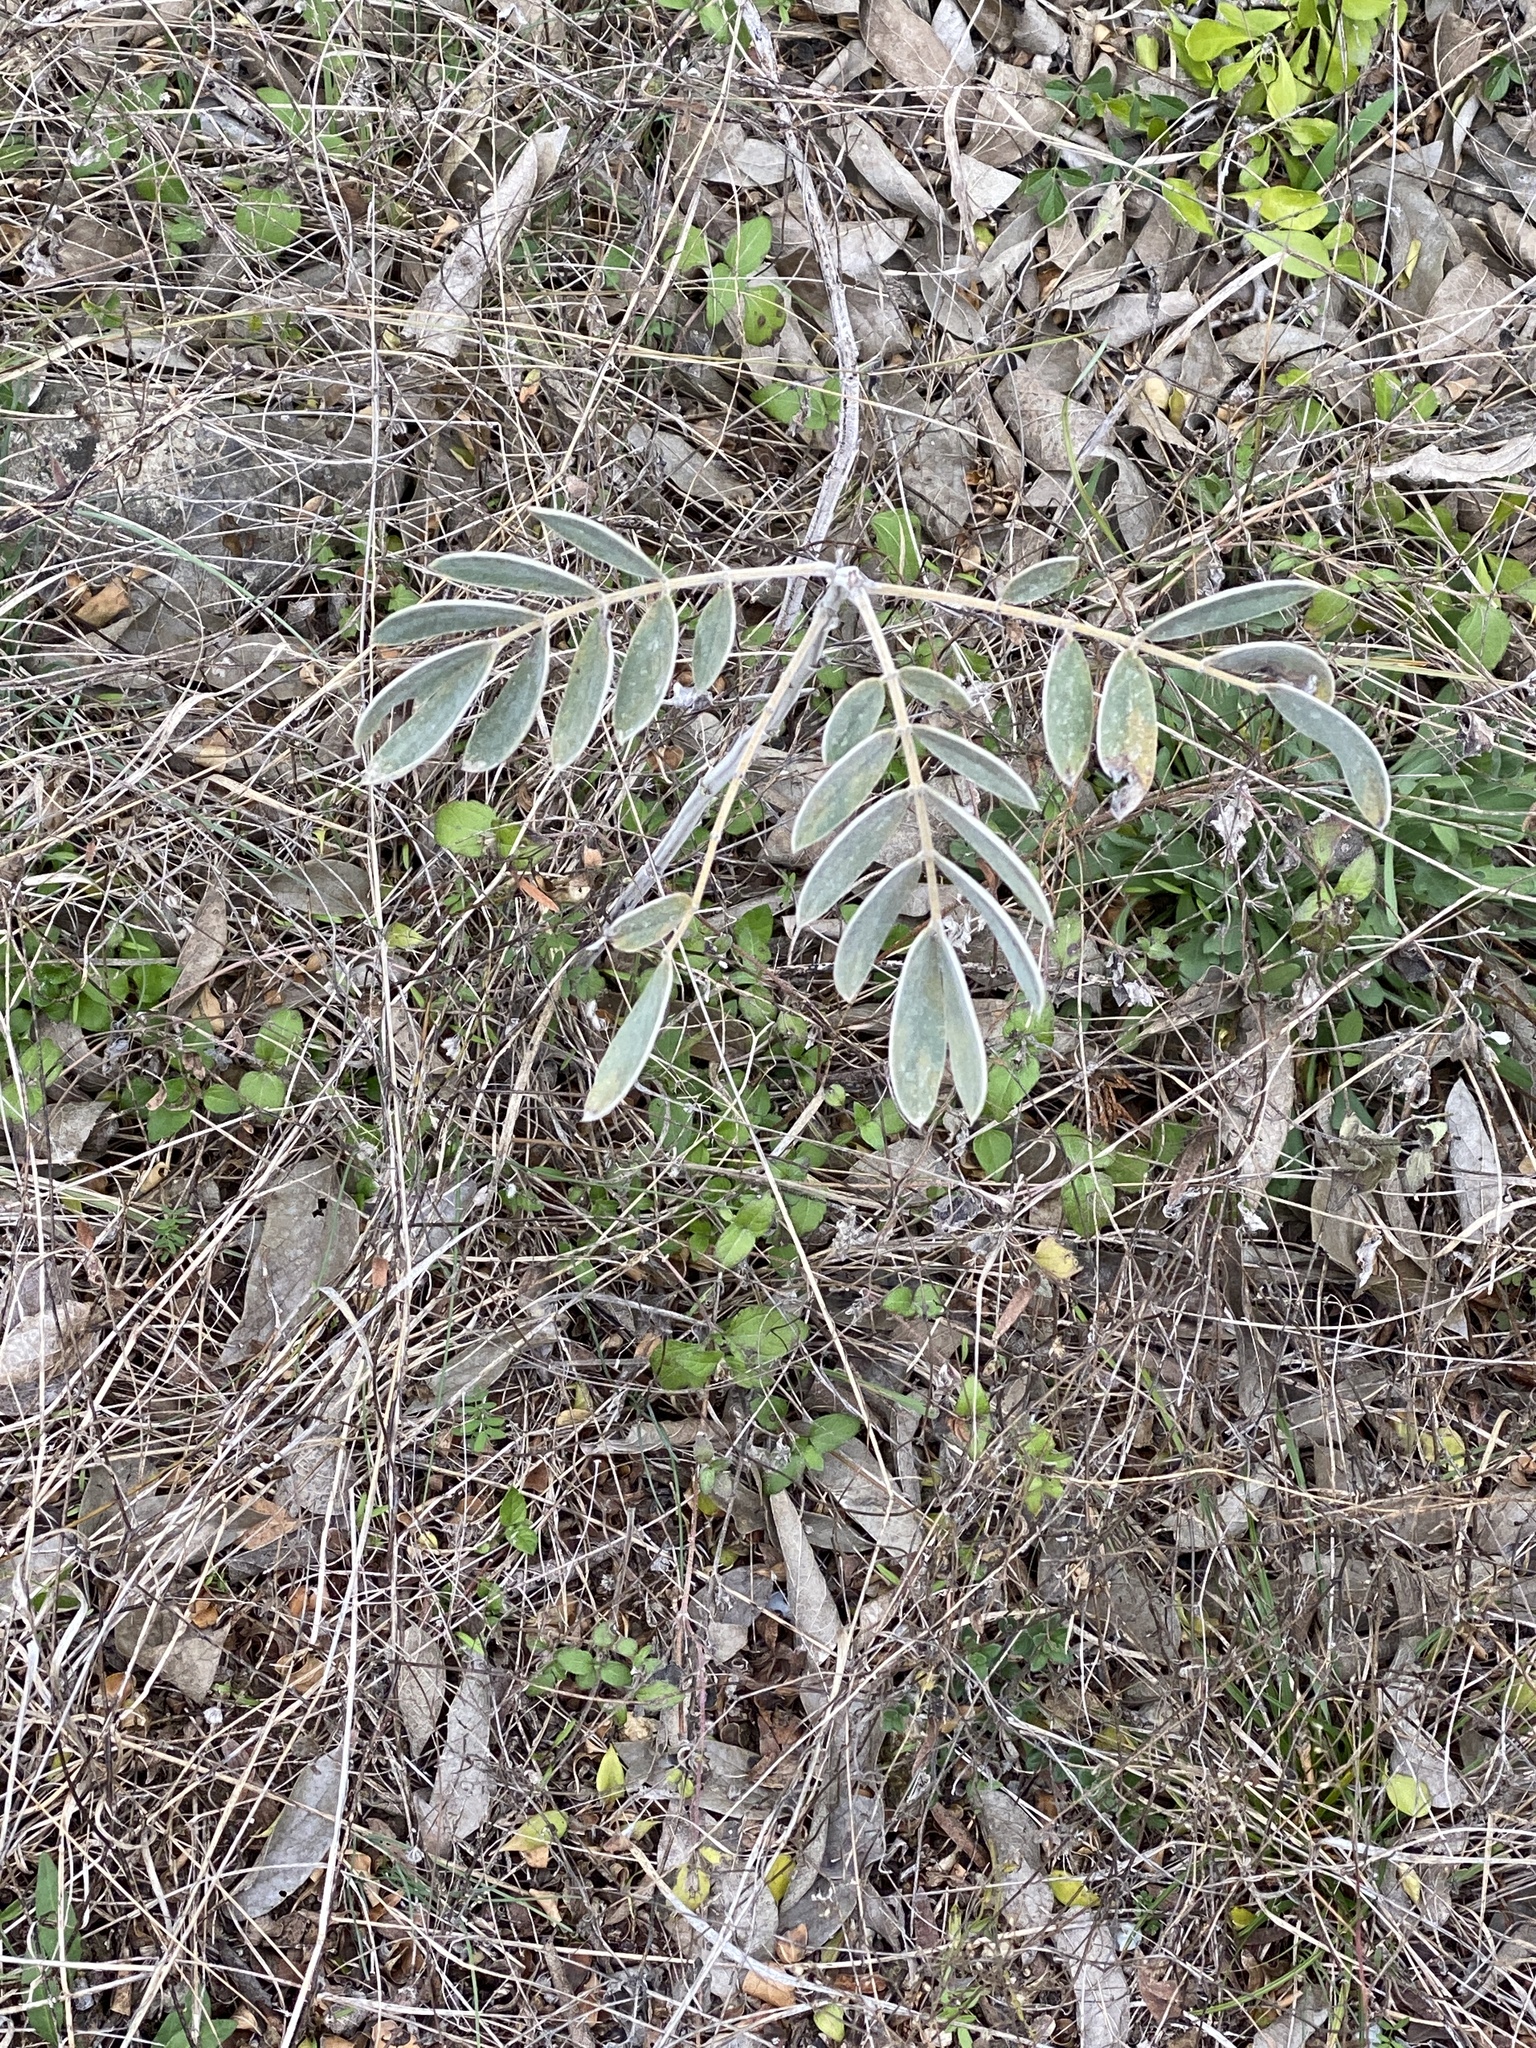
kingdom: Plantae
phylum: Tracheophyta
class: Magnoliopsida
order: Fabales
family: Fabaceae
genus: Senna
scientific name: Senna lindheimeriana
